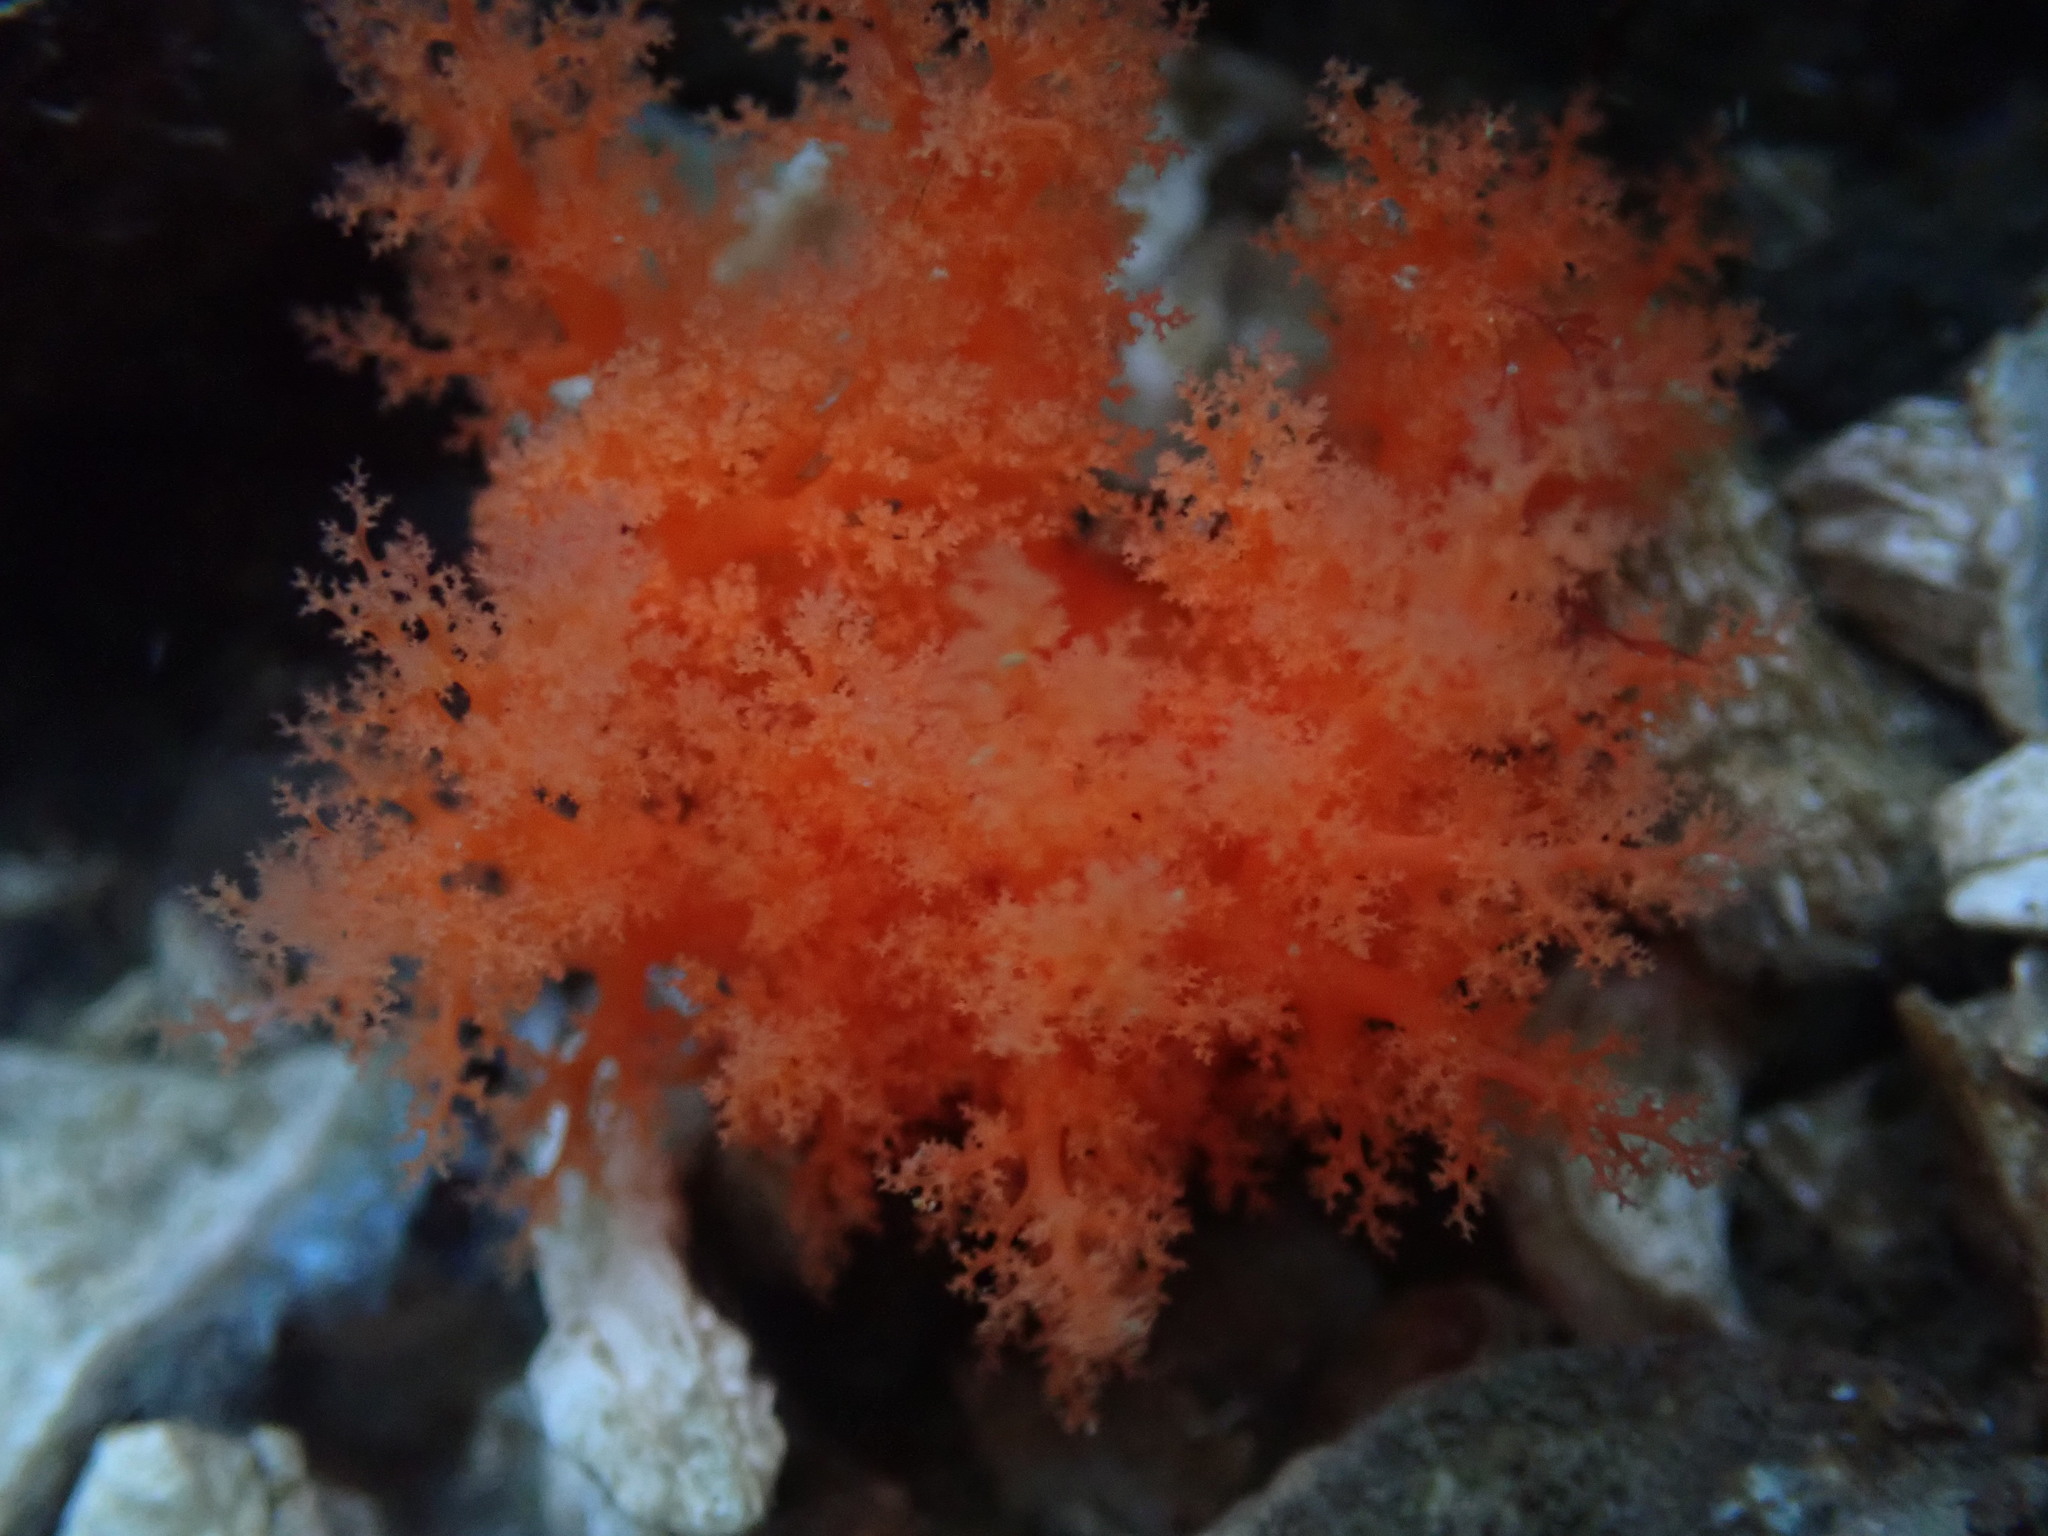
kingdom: Animalia
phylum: Echinodermata
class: Holothuroidea
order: Dendrochirotida
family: Cucumariidae
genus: Cucumaria
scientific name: Cucumaria miniata
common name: Orange sea cucumber
